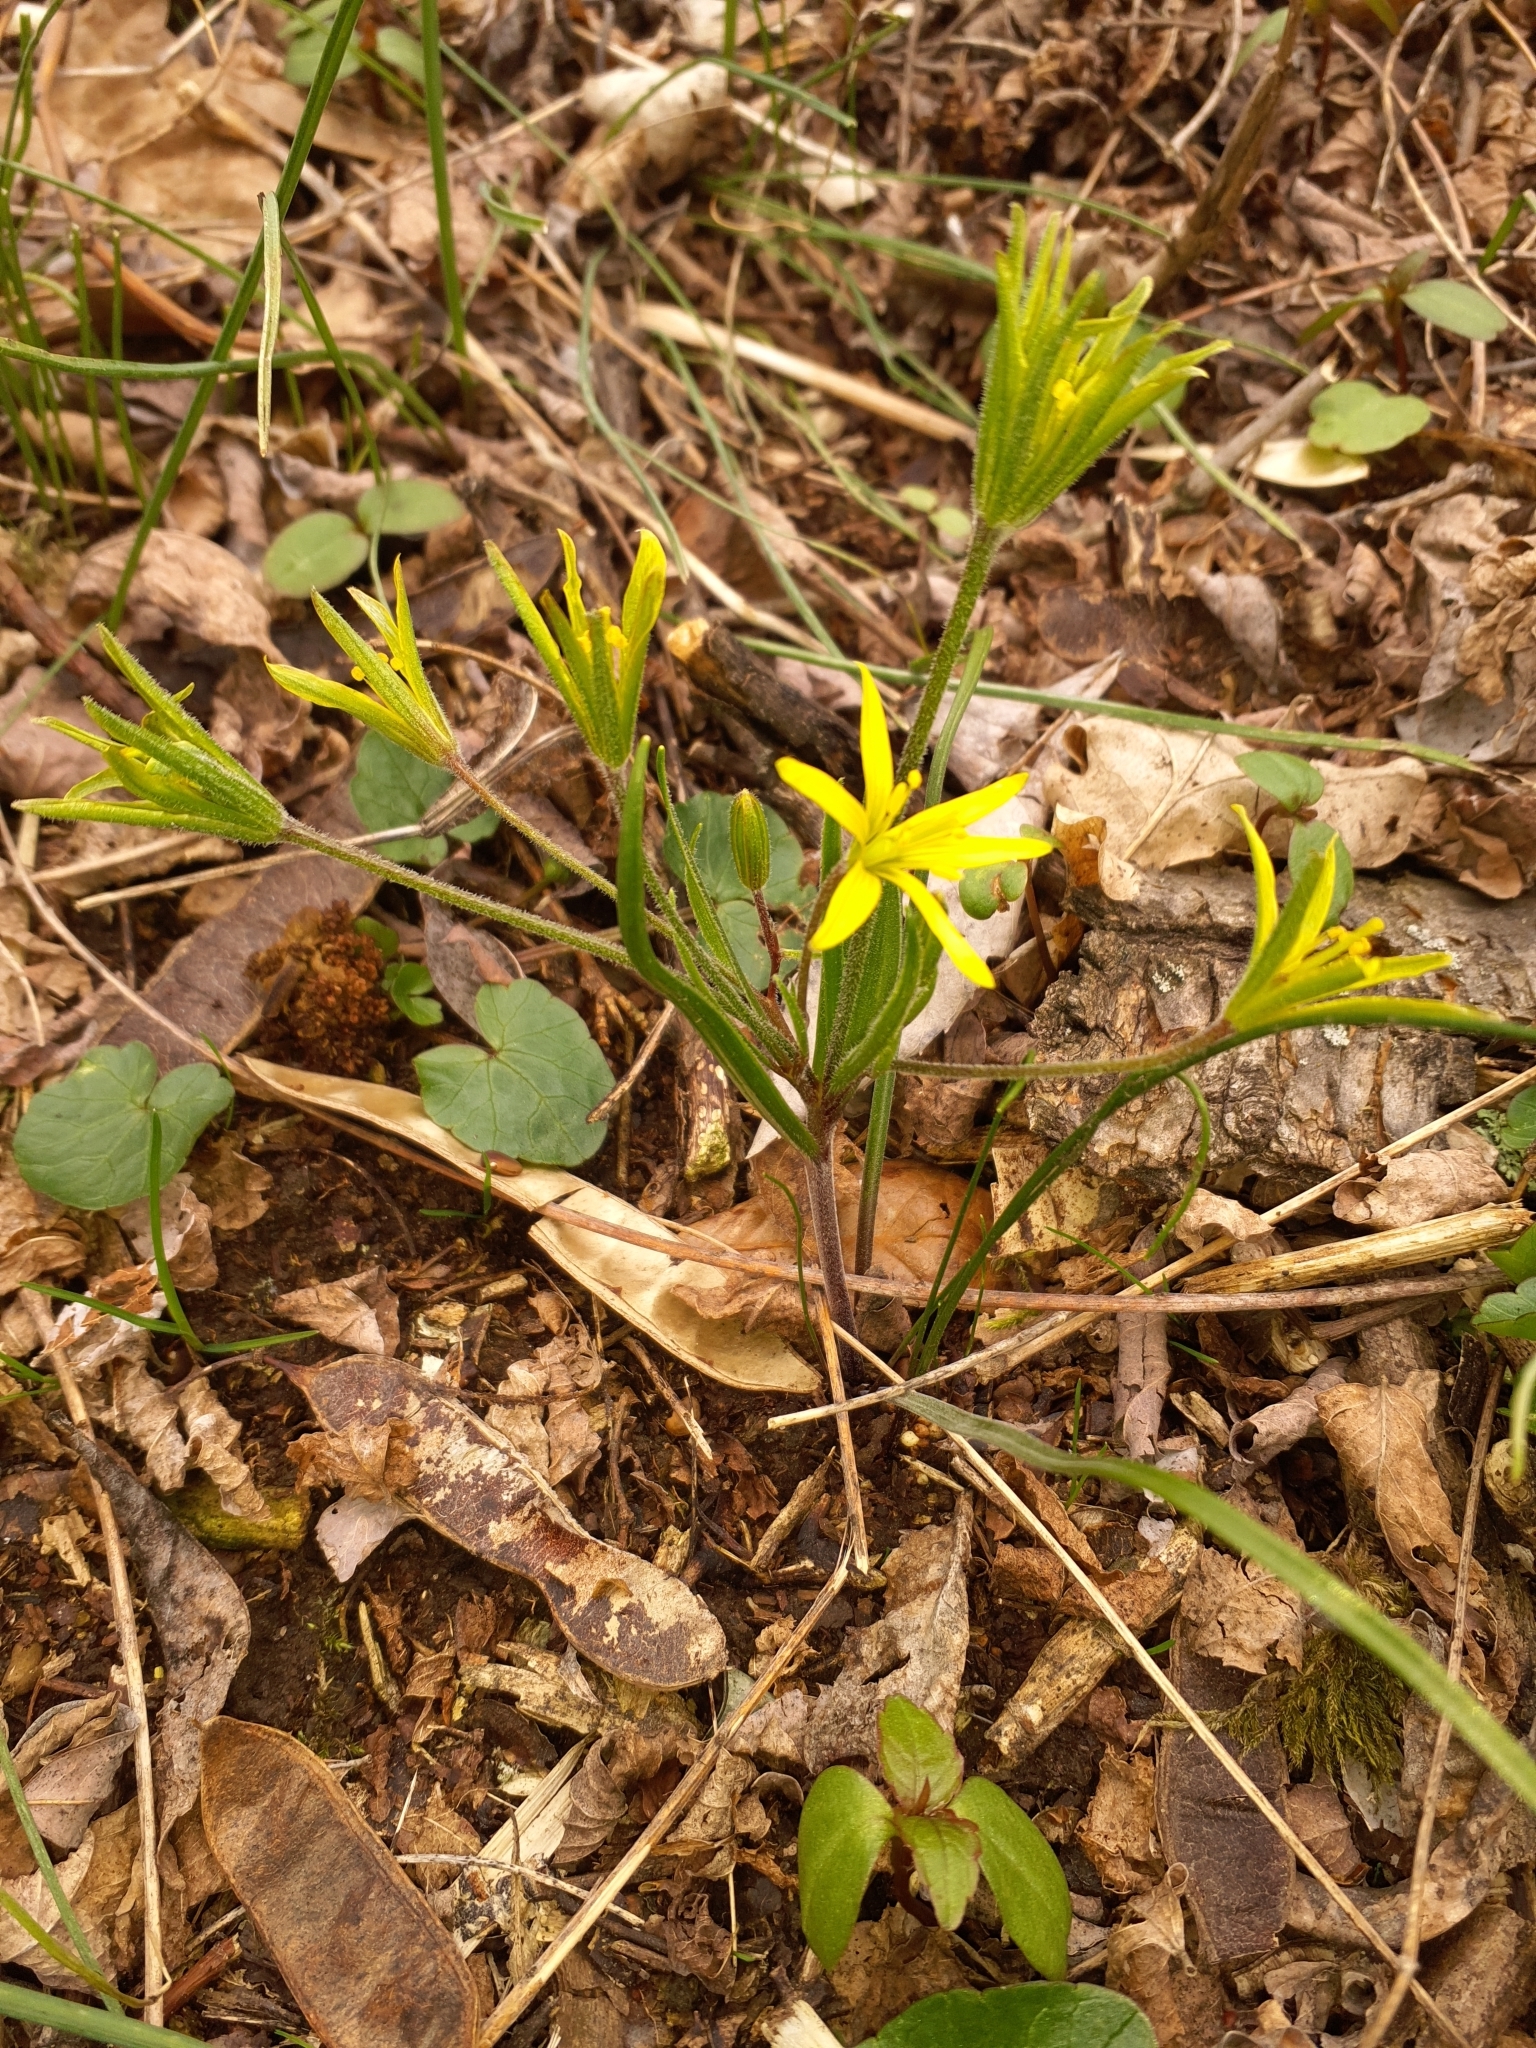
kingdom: Plantae
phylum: Tracheophyta
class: Liliopsida
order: Liliales
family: Liliaceae
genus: Gagea
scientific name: Gagea villosa
